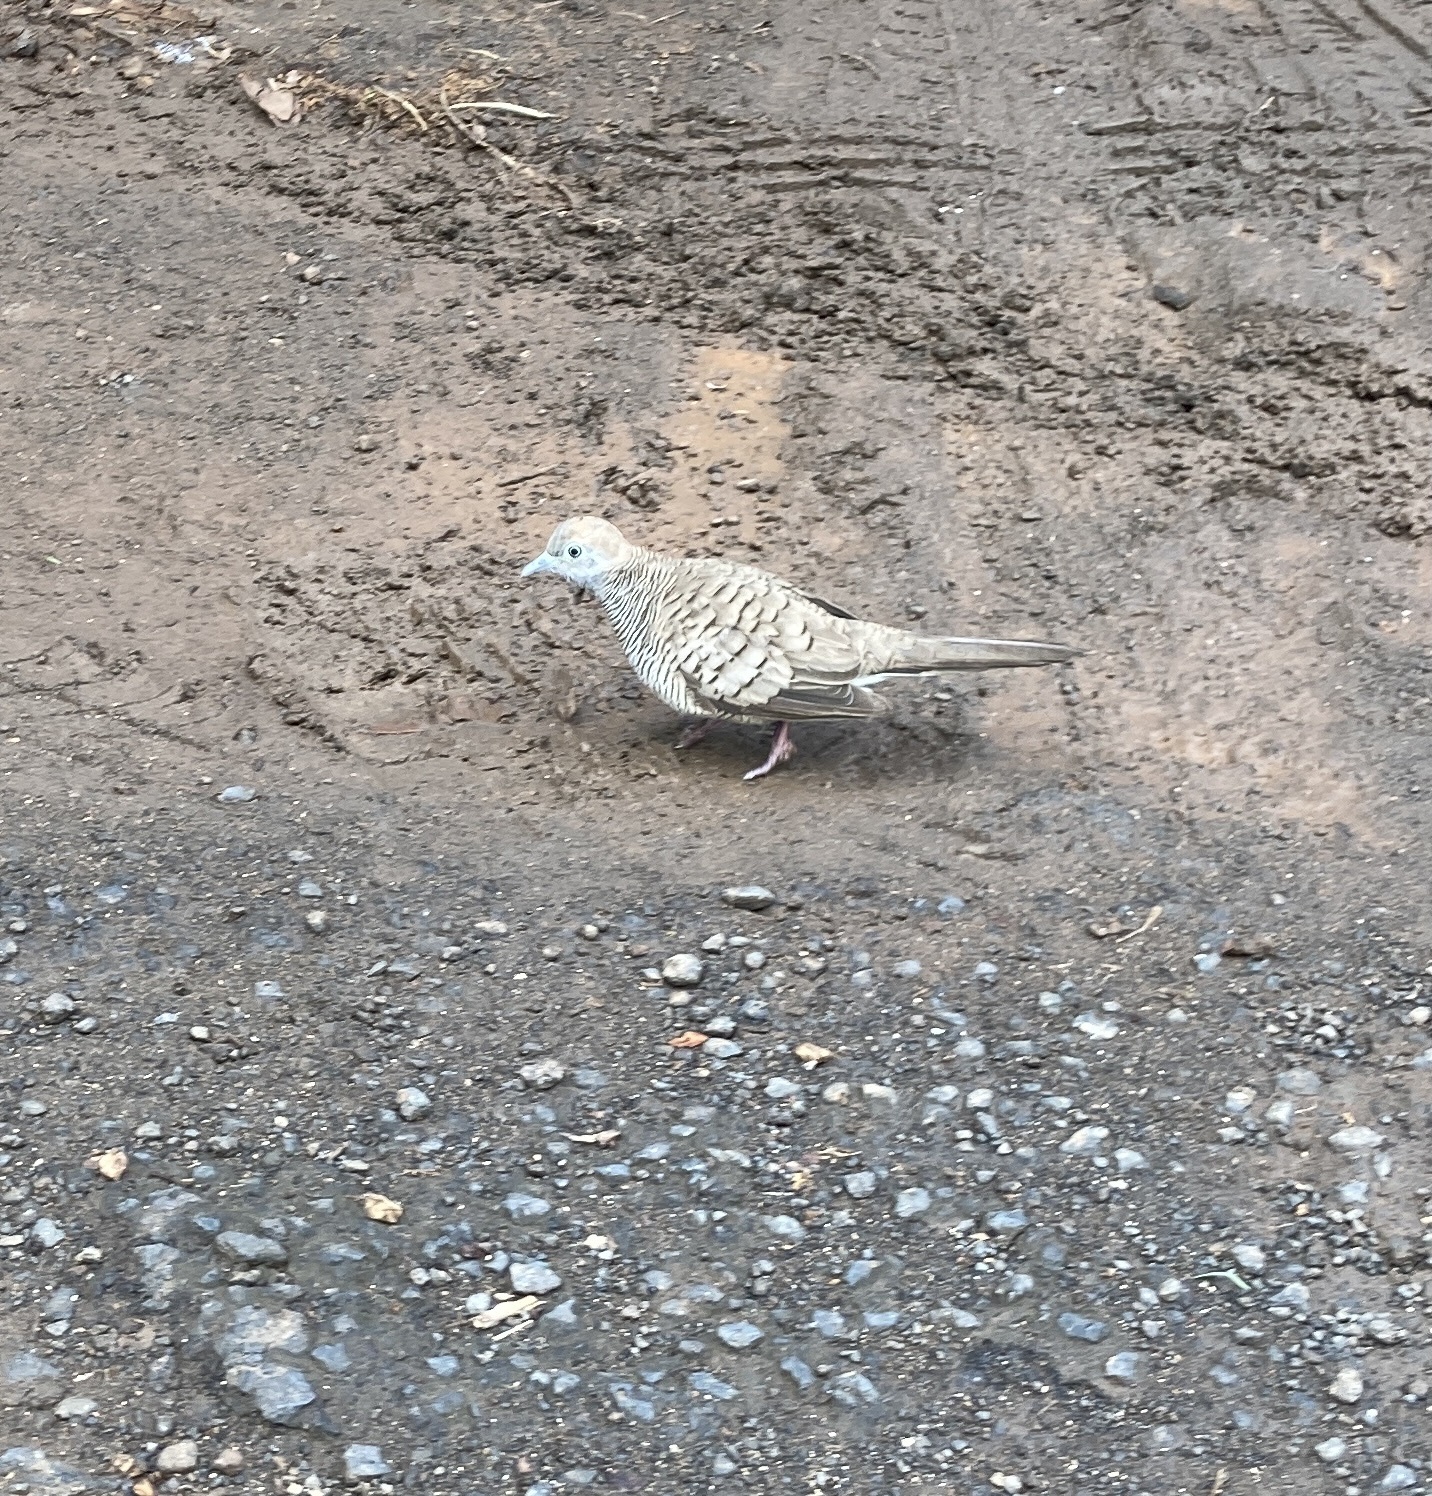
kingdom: Animalia
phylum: Chordata
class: Aves
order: Columbiformes
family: Columbidae
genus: Geopelia
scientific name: Geopelia striata
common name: Zebra dove
